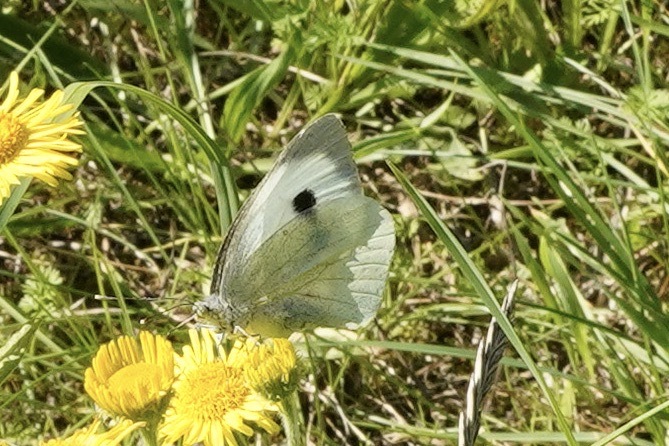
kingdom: Animalia
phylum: Arthropoda
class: Insecta
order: Lepidoptera
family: Pieridae
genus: Pieris
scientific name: Pieris brassicae
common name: Large white
